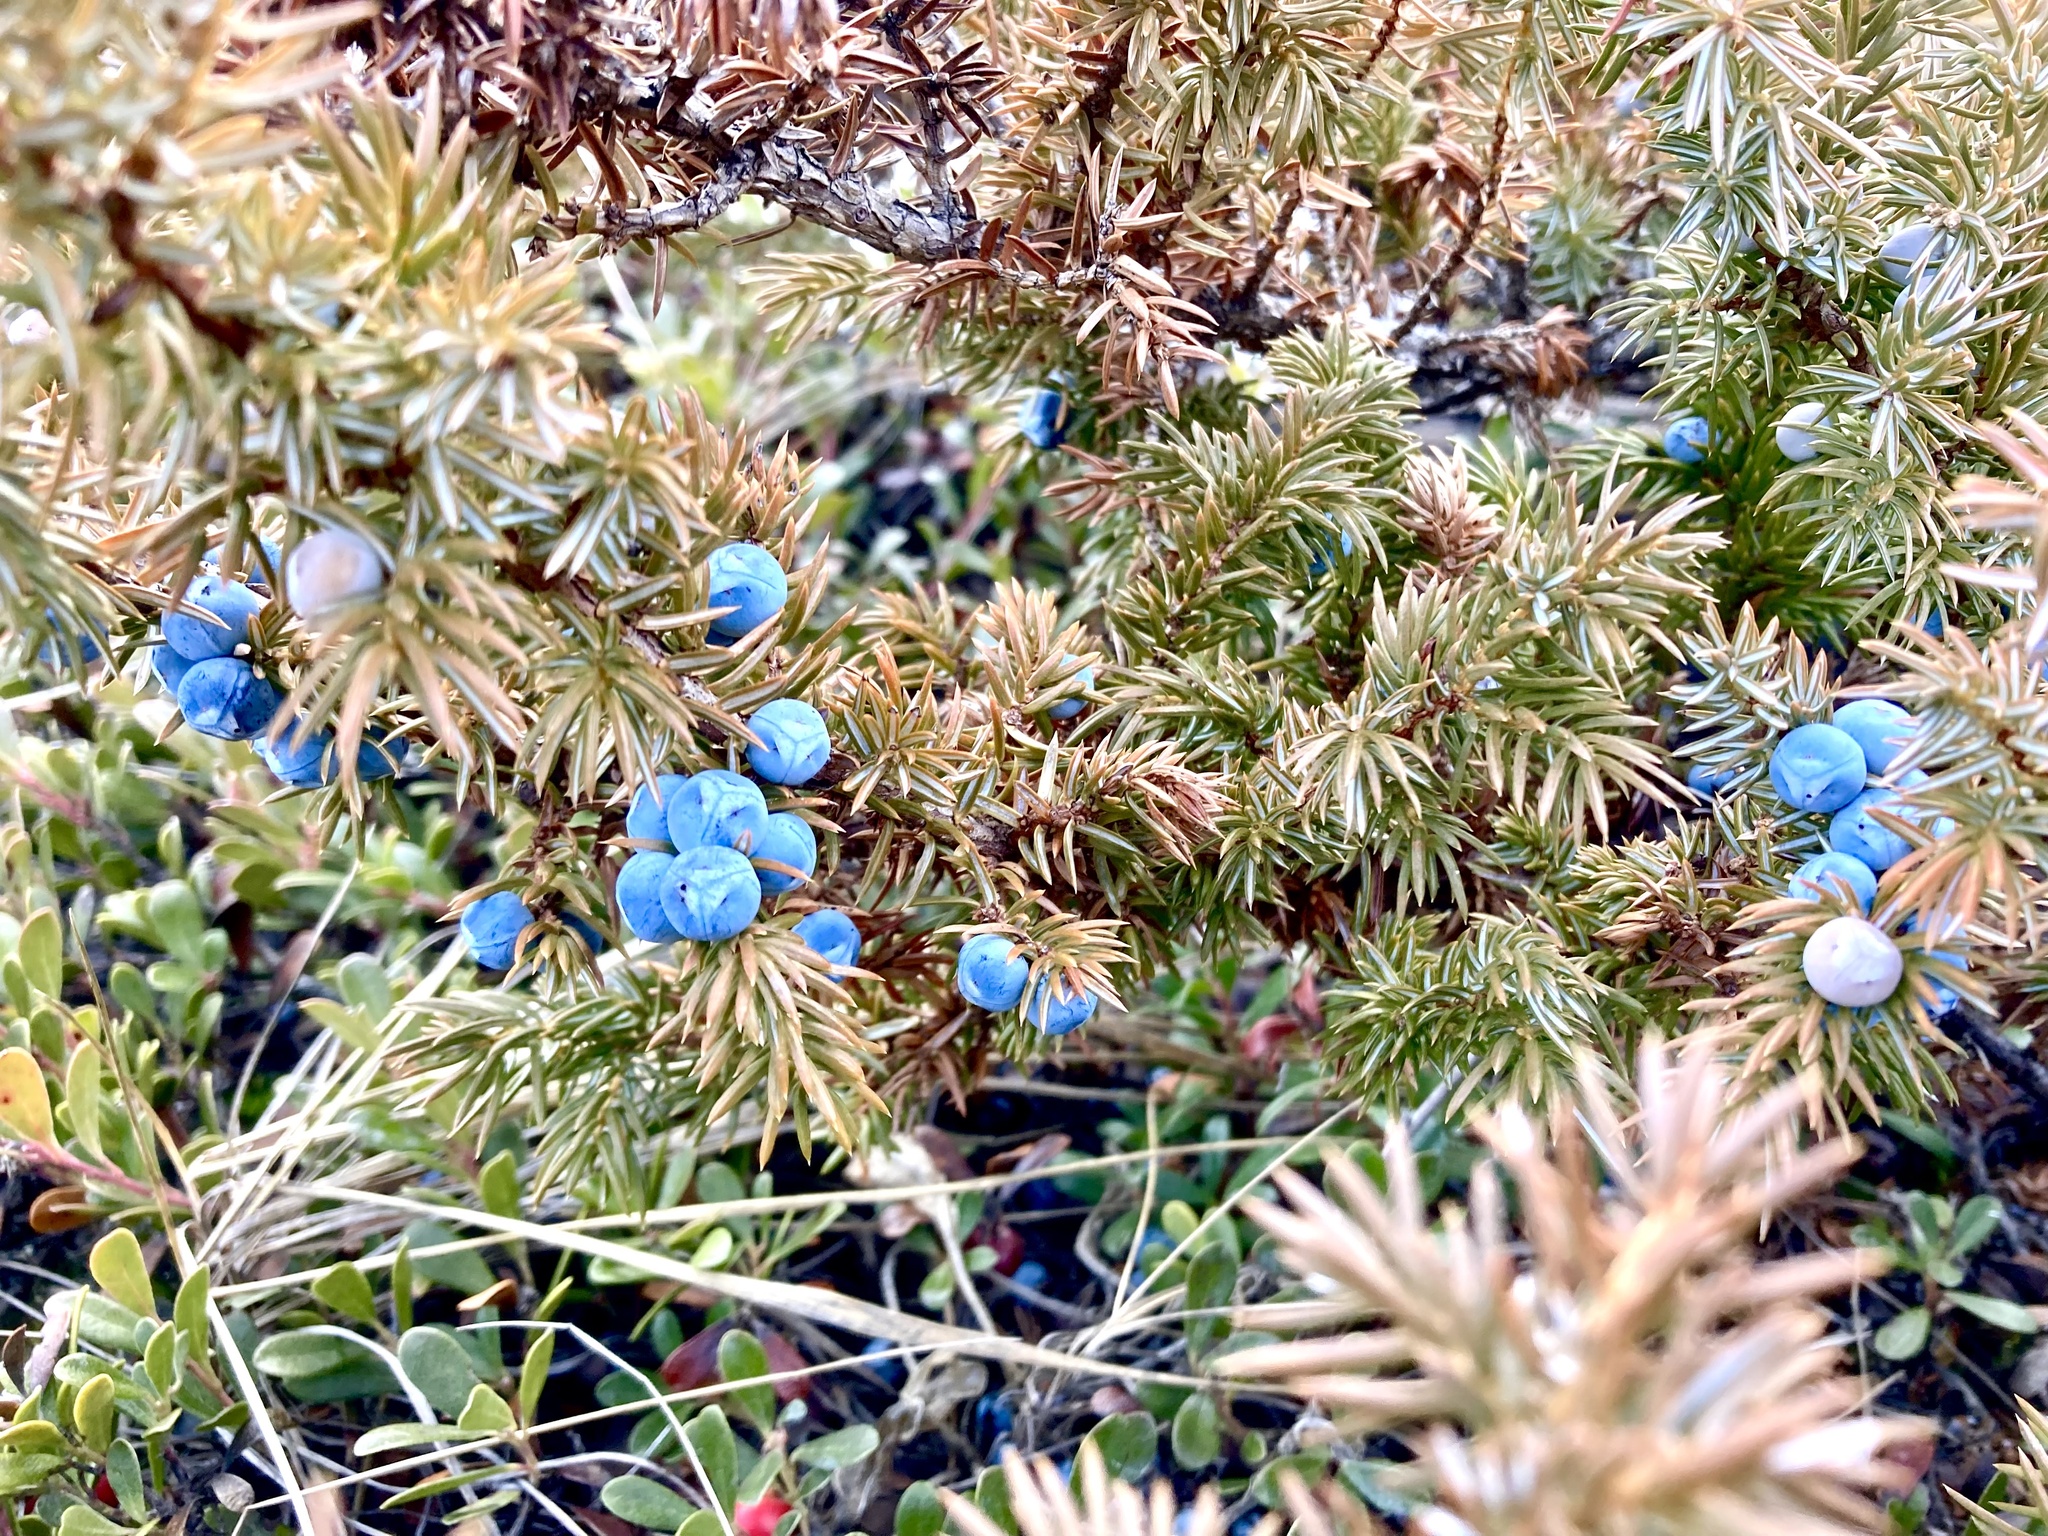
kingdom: Plantae
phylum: Tracheophyta
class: Pinopsida
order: Pinales
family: Cupressaceae
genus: Juniperus
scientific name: Juniperus communis
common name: Common juniper
